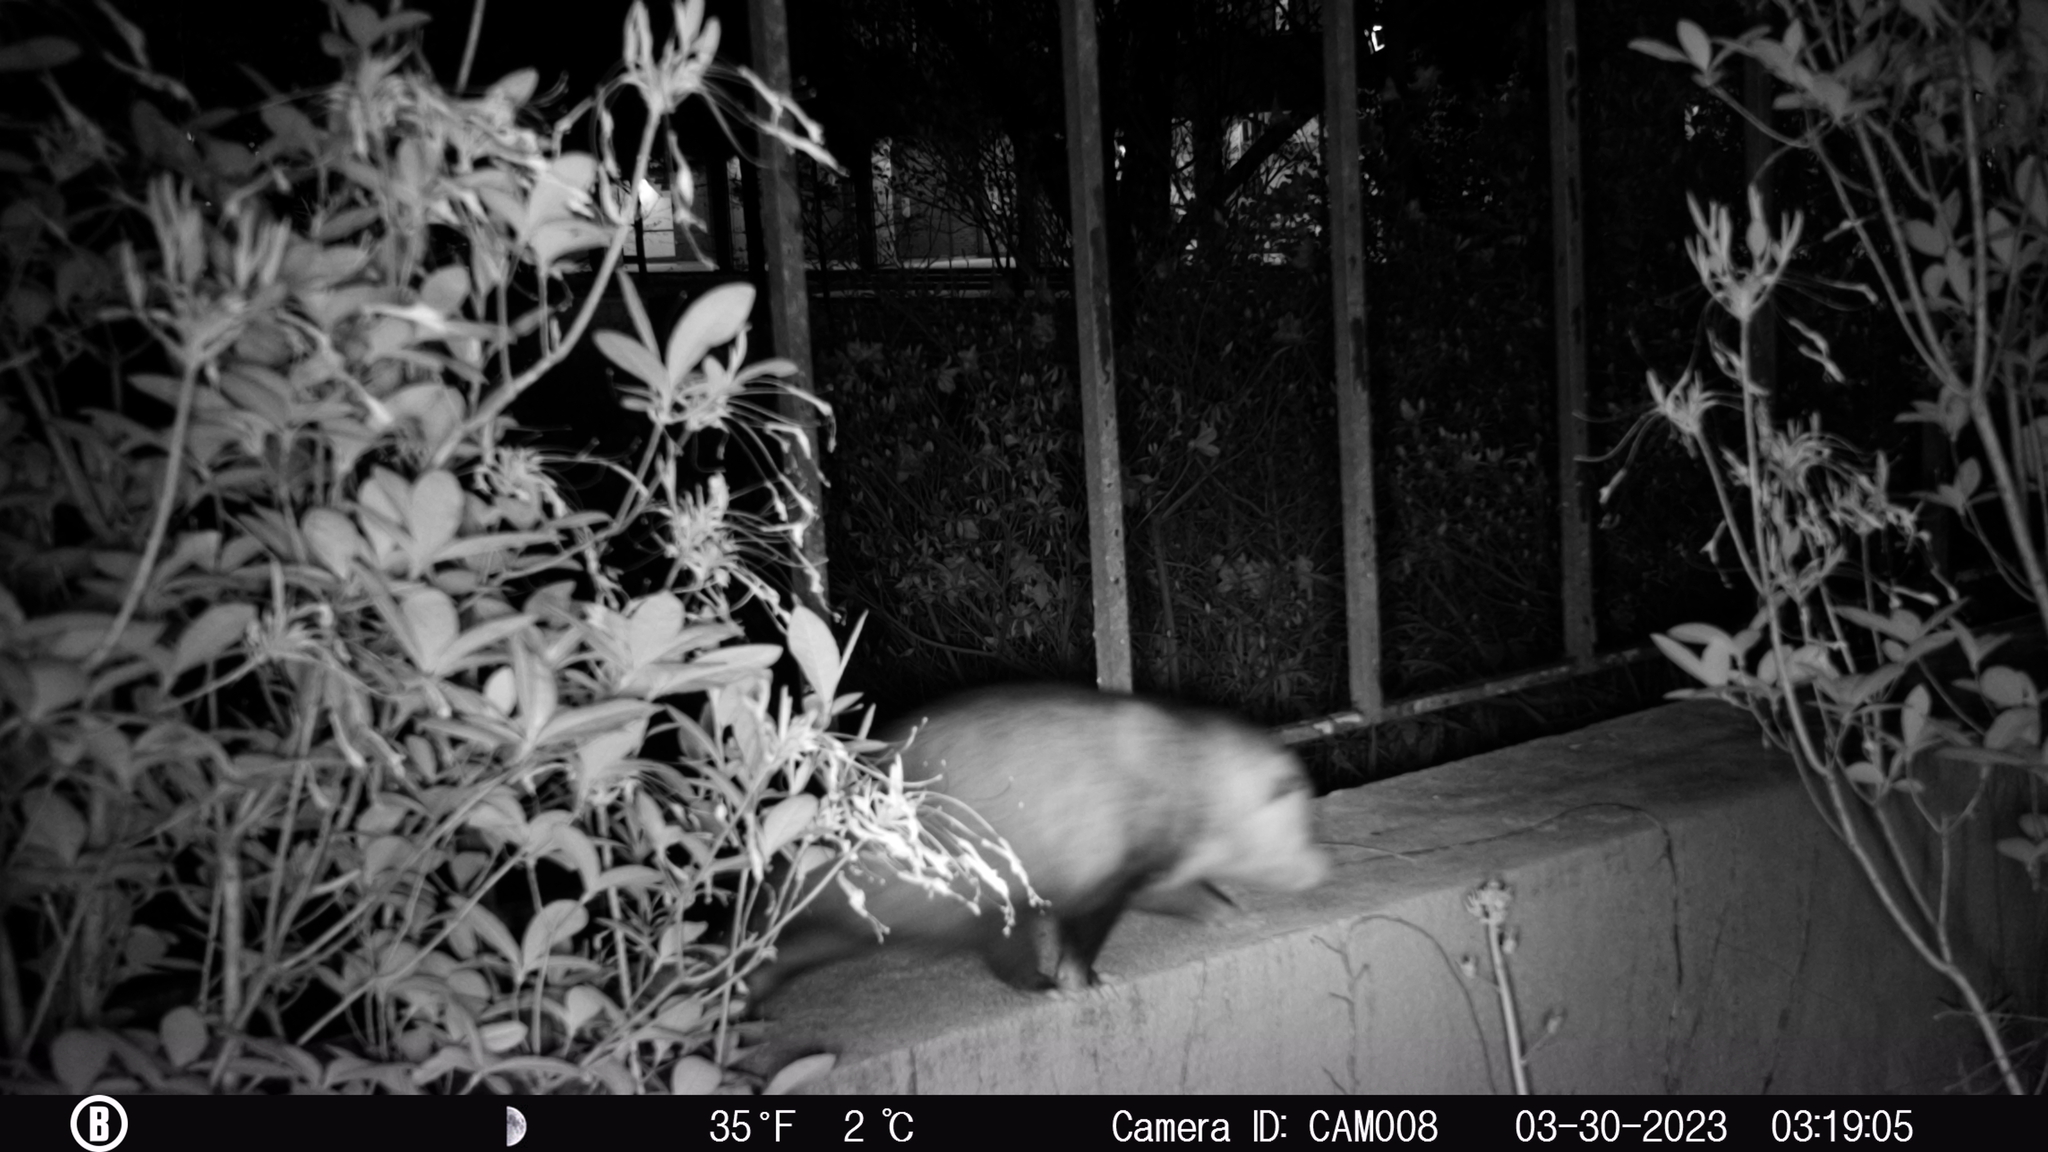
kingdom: Animalia
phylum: Chordata
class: Mammalia
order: Didelphimorphia
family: Didelphidae
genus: Didelphis
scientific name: Didelphis virginiana
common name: Virginia opossum
